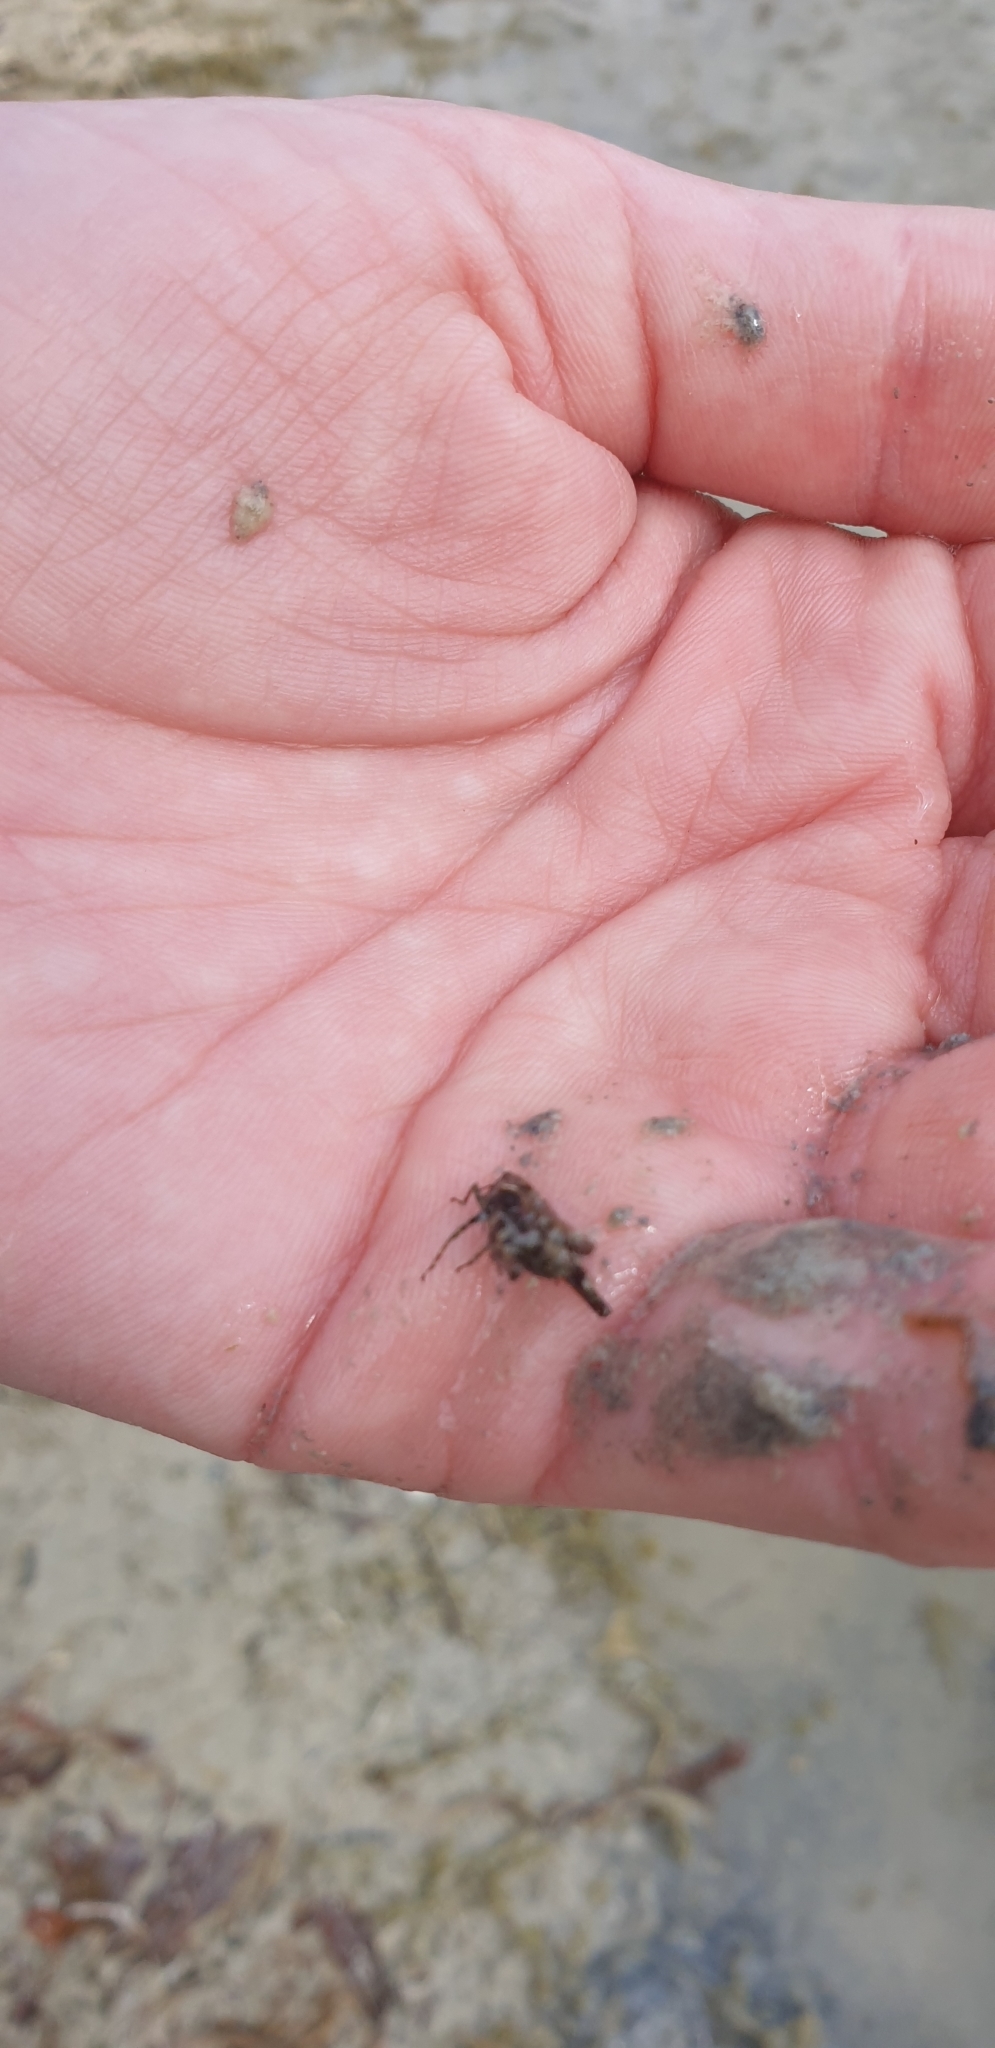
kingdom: Animalia
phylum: Arthropoda
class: Insecta
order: Orthoptera
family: Tetrigidae
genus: Tetrix
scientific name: Tetrix
